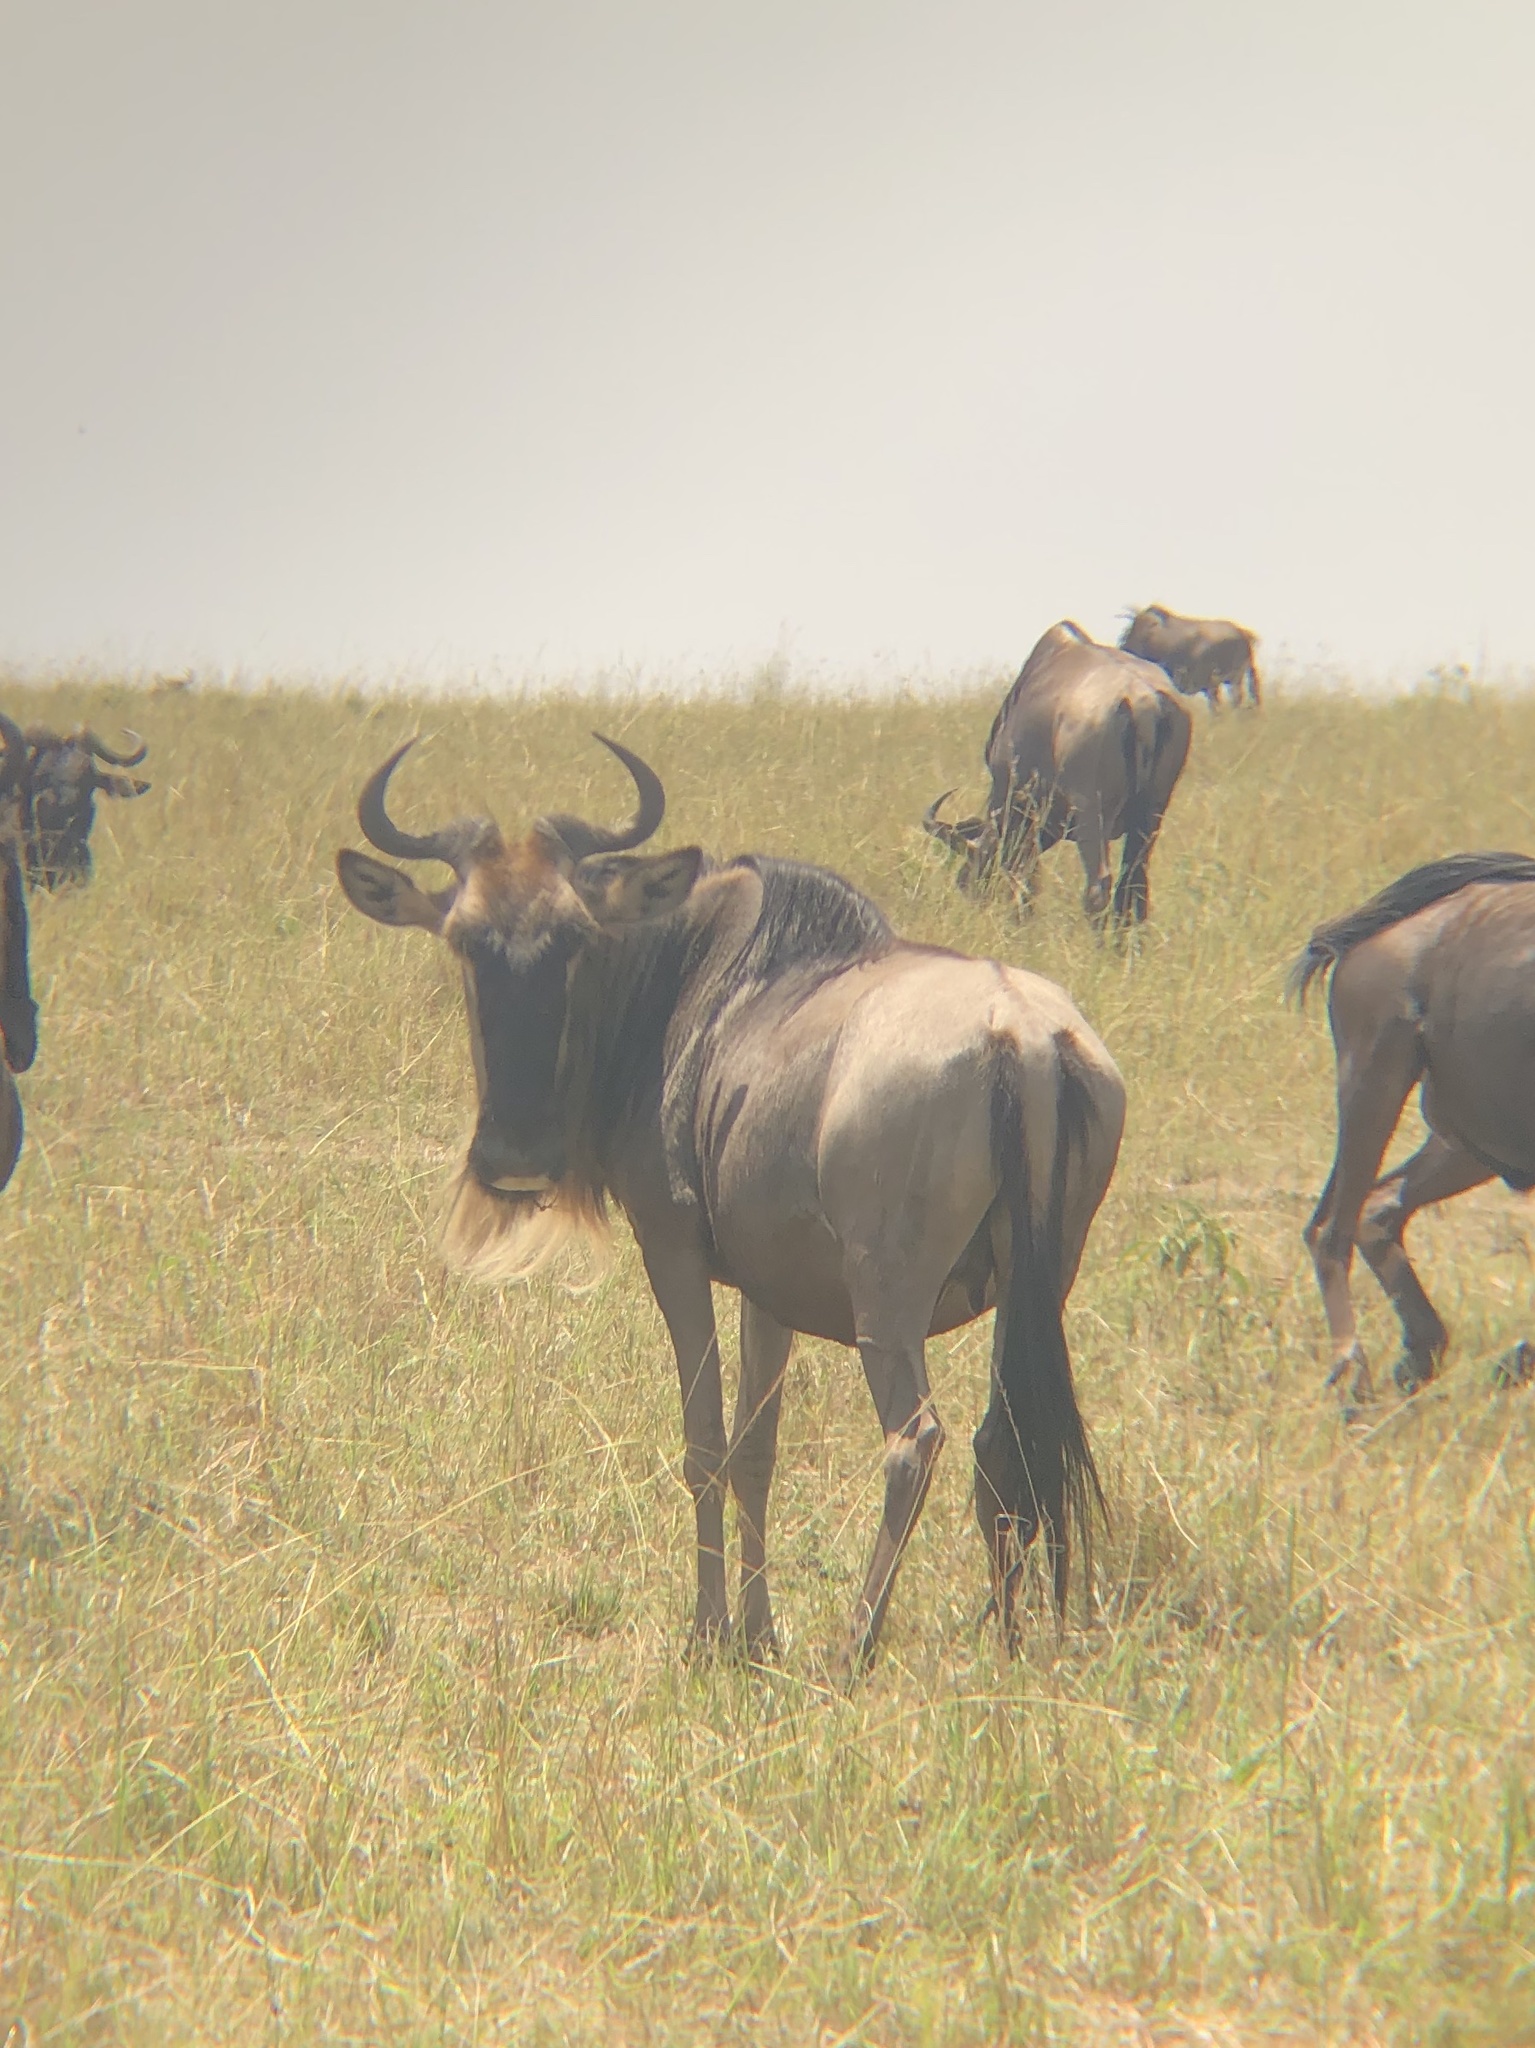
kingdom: Animalia
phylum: Chordata
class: Mammalia
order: Artiodactyla
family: Bovidae
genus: Connochaetes
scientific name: Connochaetes taurinus
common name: Blue wildebeest
